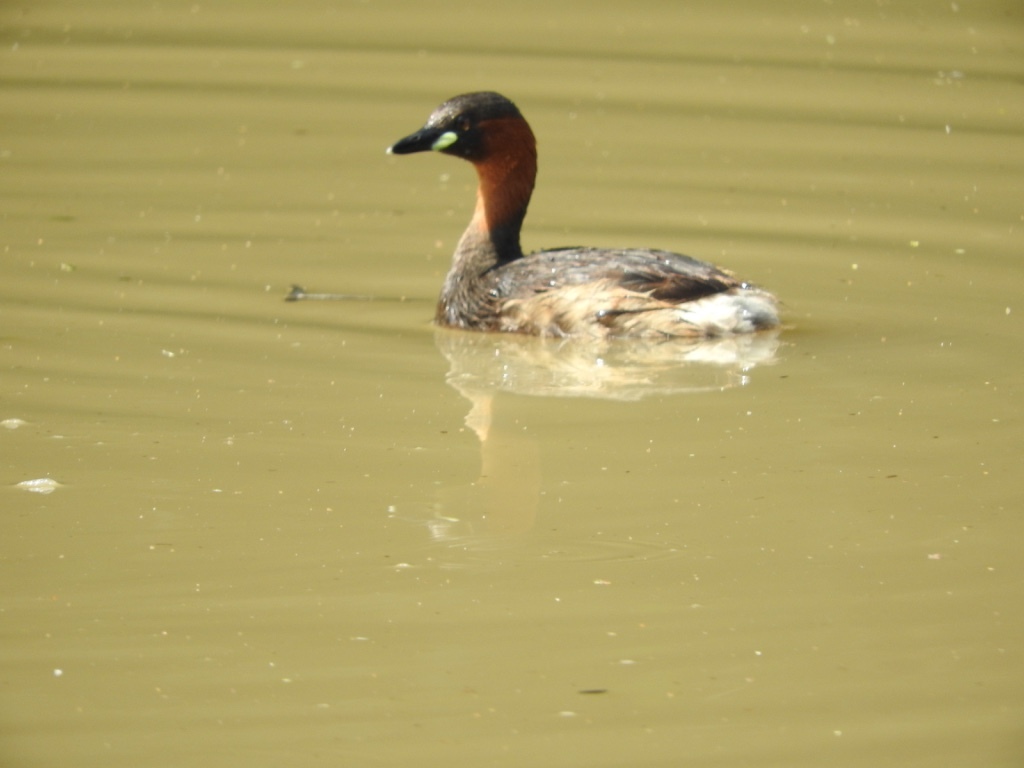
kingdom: Animalia
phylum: Chordata
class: Aves
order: Podicipediformes
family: Podicipedidae
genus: Tachybaptus
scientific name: Tachybaptus ruficollis
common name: Little grebe
